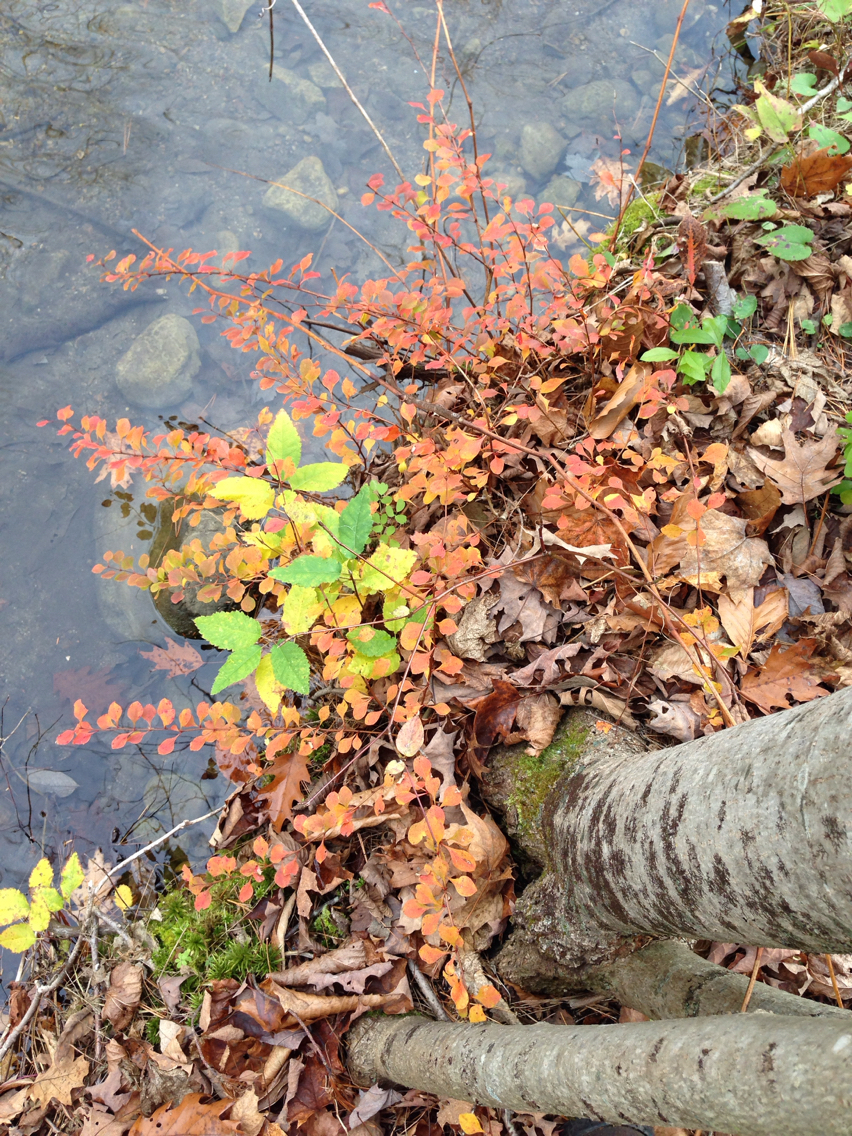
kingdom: Plantae
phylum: Tracheophyta
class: Magnoliopsida
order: Ranunculales
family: Berberidaceae
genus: Berberis
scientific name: Berberis thunbergii
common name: Japanese barberry
